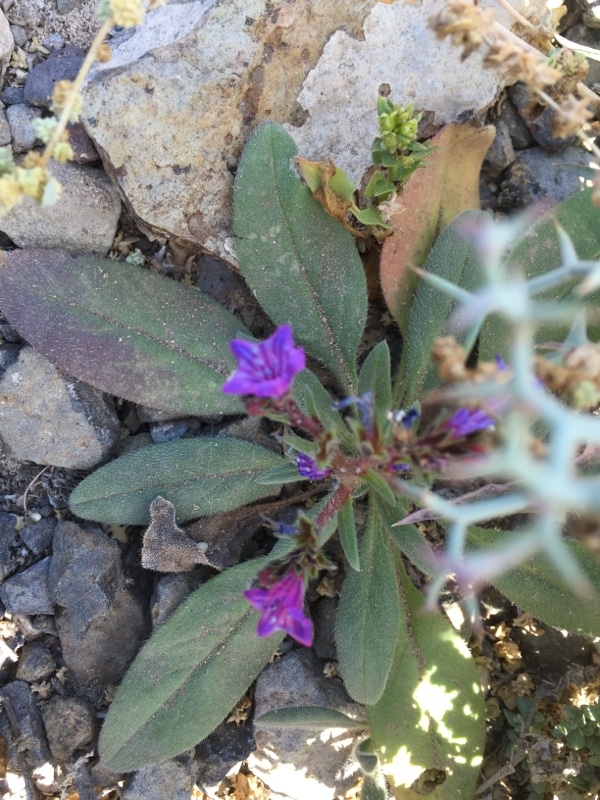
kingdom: Plantae
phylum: Tracheophyta
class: Magnoliopsida
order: Boraginales
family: Boraginaceae
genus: Echium
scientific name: Echium bonnetii
